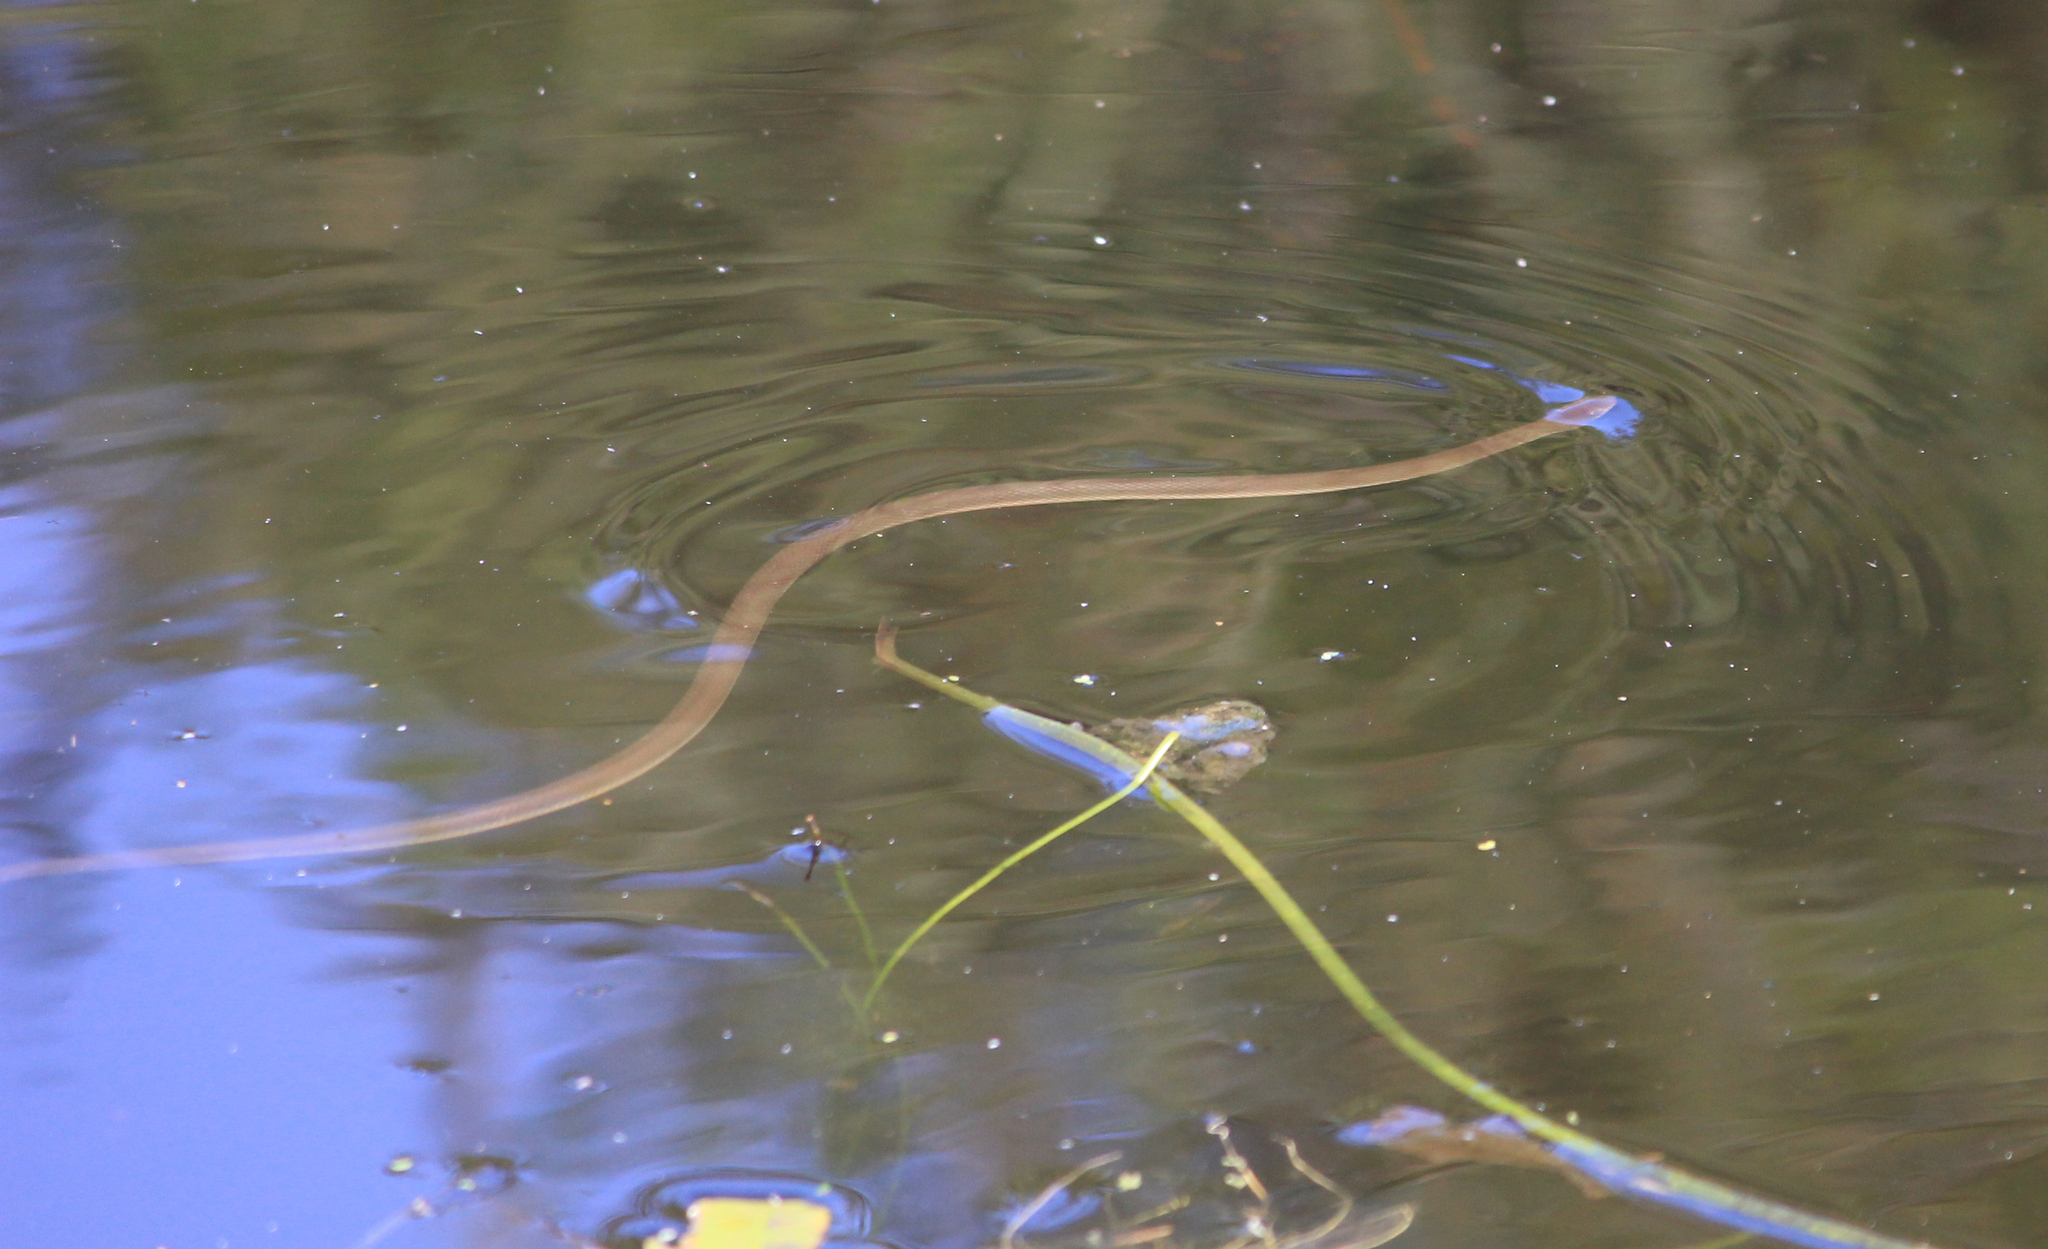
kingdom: Animalia
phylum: Chordata
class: Squamata
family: Lamprophiidae
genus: Lycodonomorphus
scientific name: Lycodonomorphus rufulus
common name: Brown water snake
